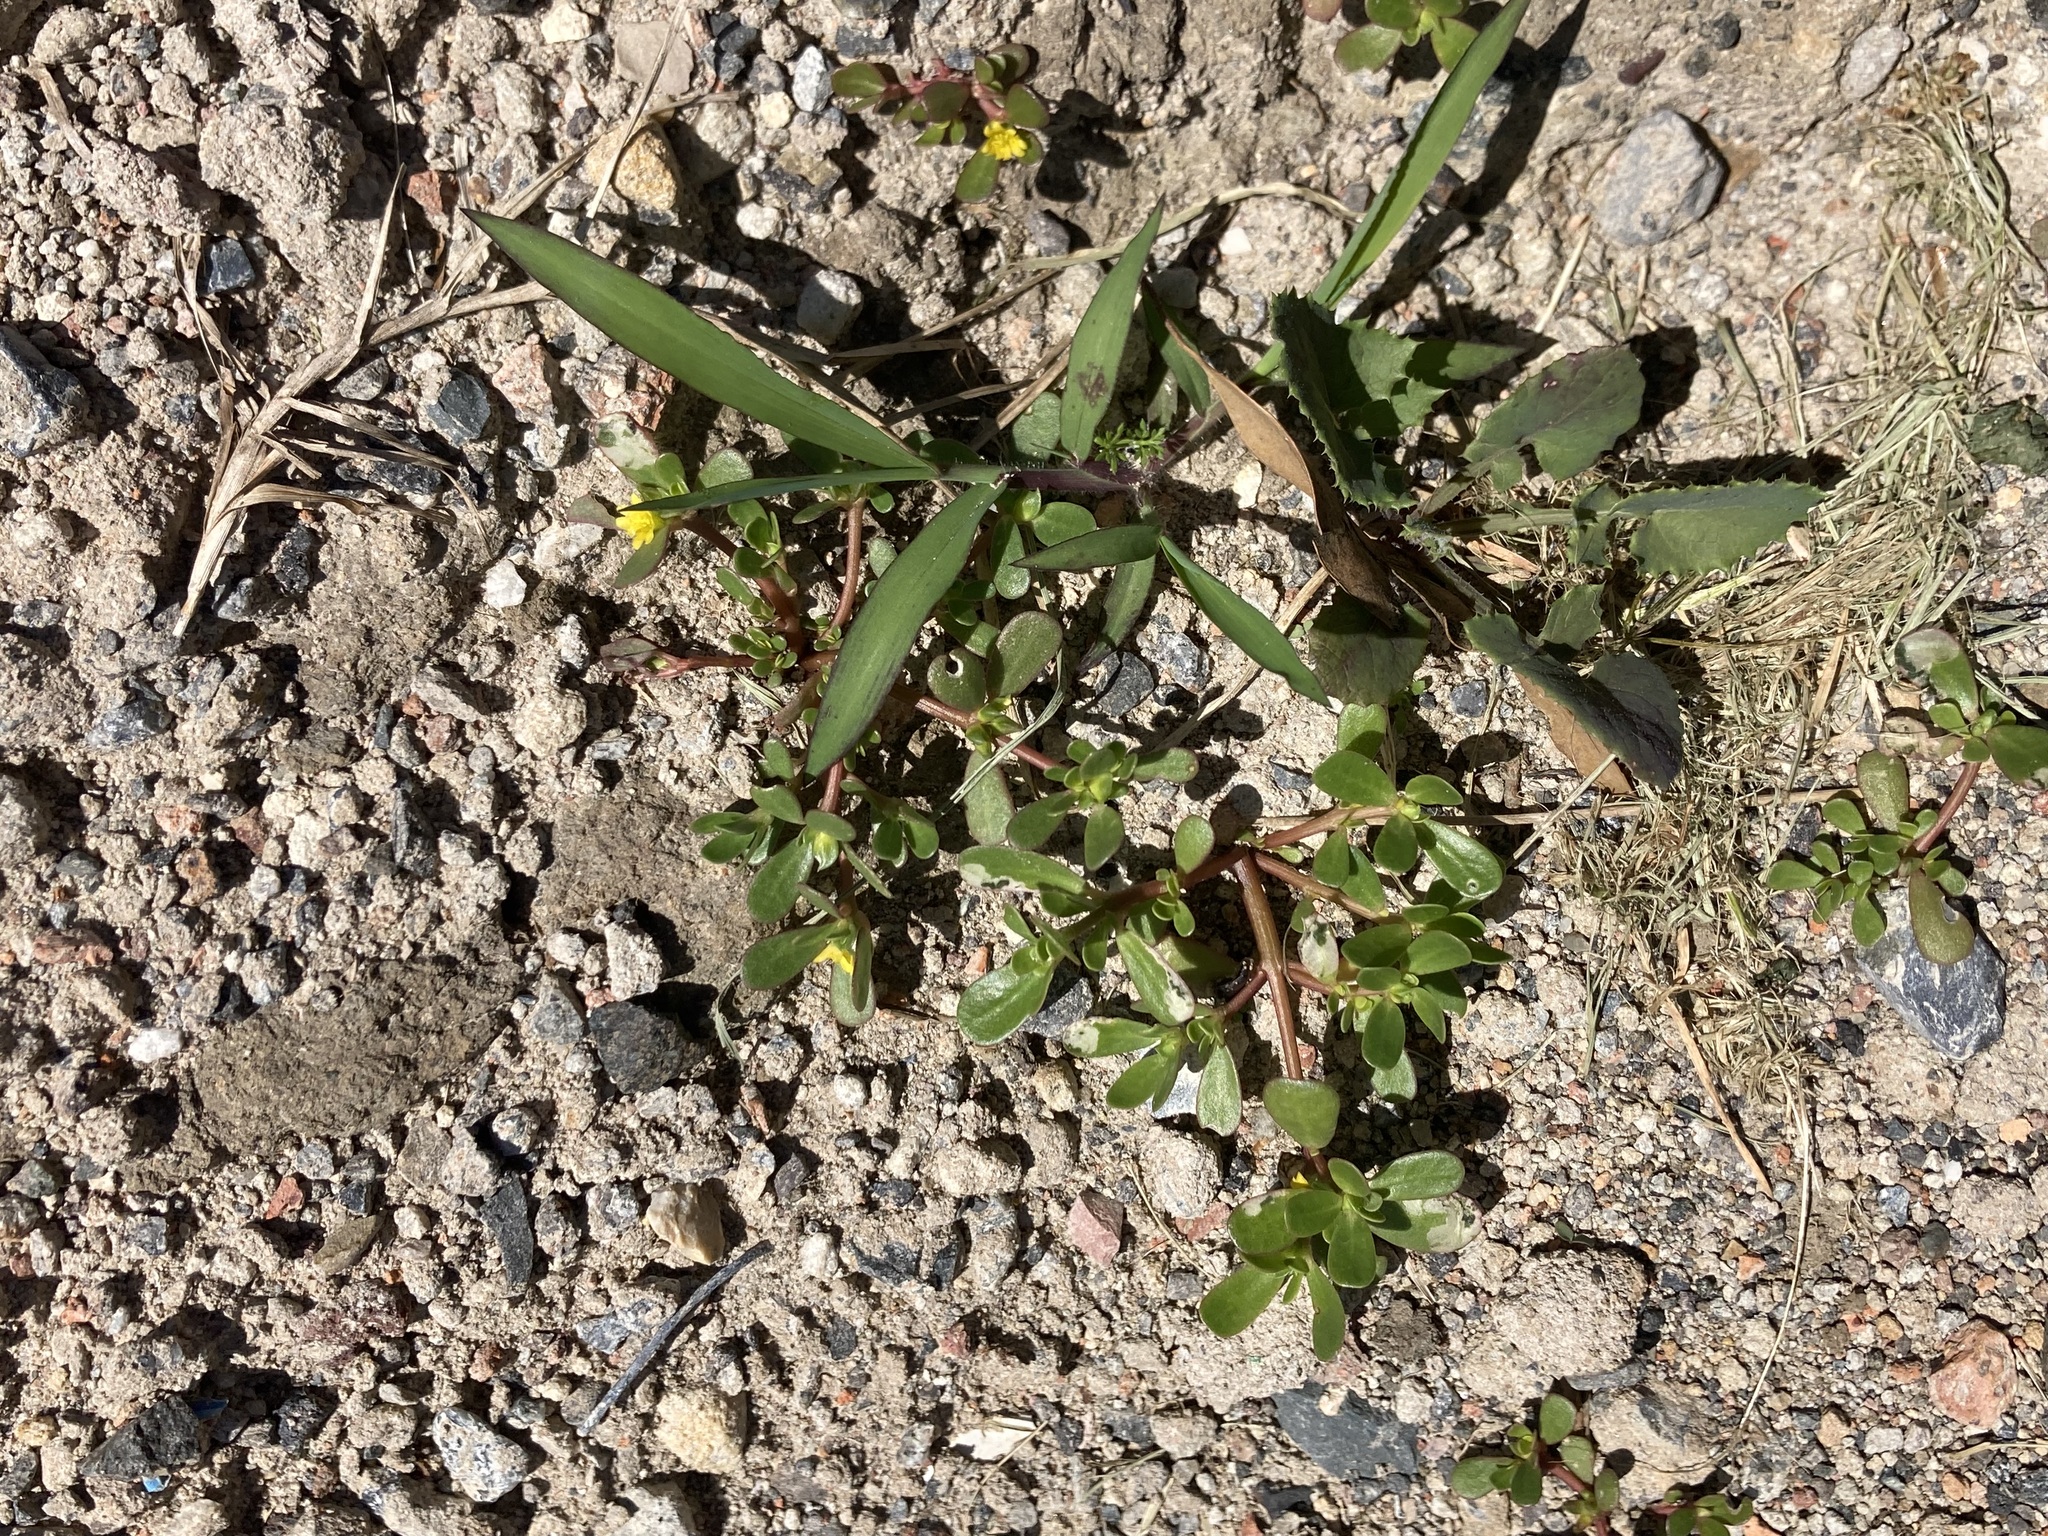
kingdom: Plantae
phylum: Tracheophyta
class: Magnoliopsida
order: Caryophyllales
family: Portulacaceae
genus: Portulaca
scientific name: Portulaca oleracea
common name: Common purslane
